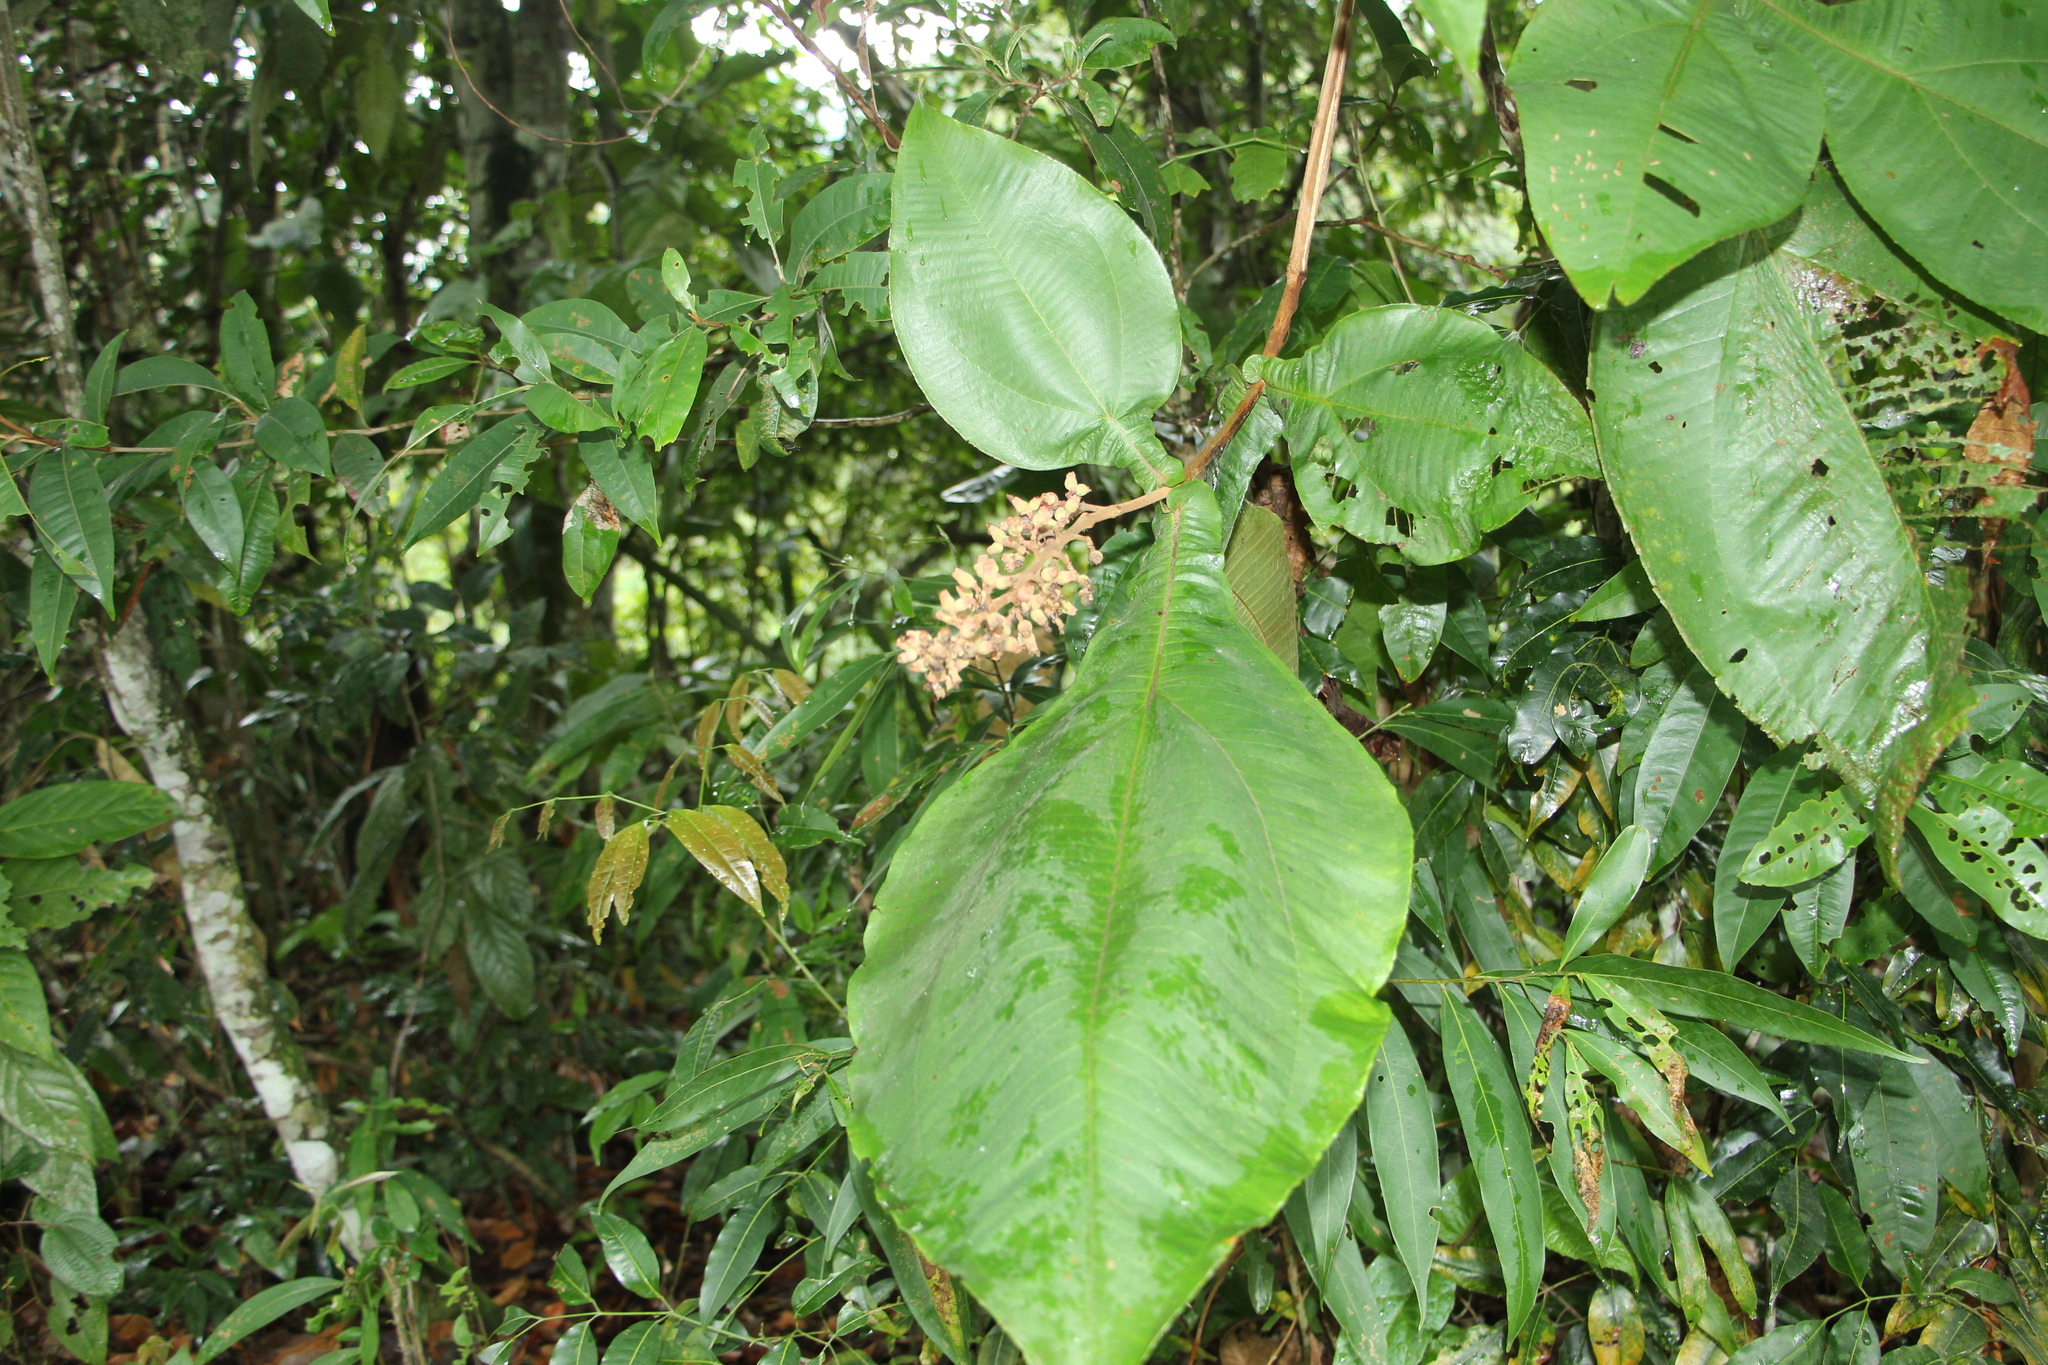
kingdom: Plantae
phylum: Tracheophyta
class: Magnoliopsida
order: Myrtales
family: Melastomataceae
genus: Miconia
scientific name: Miconia tomentosa
